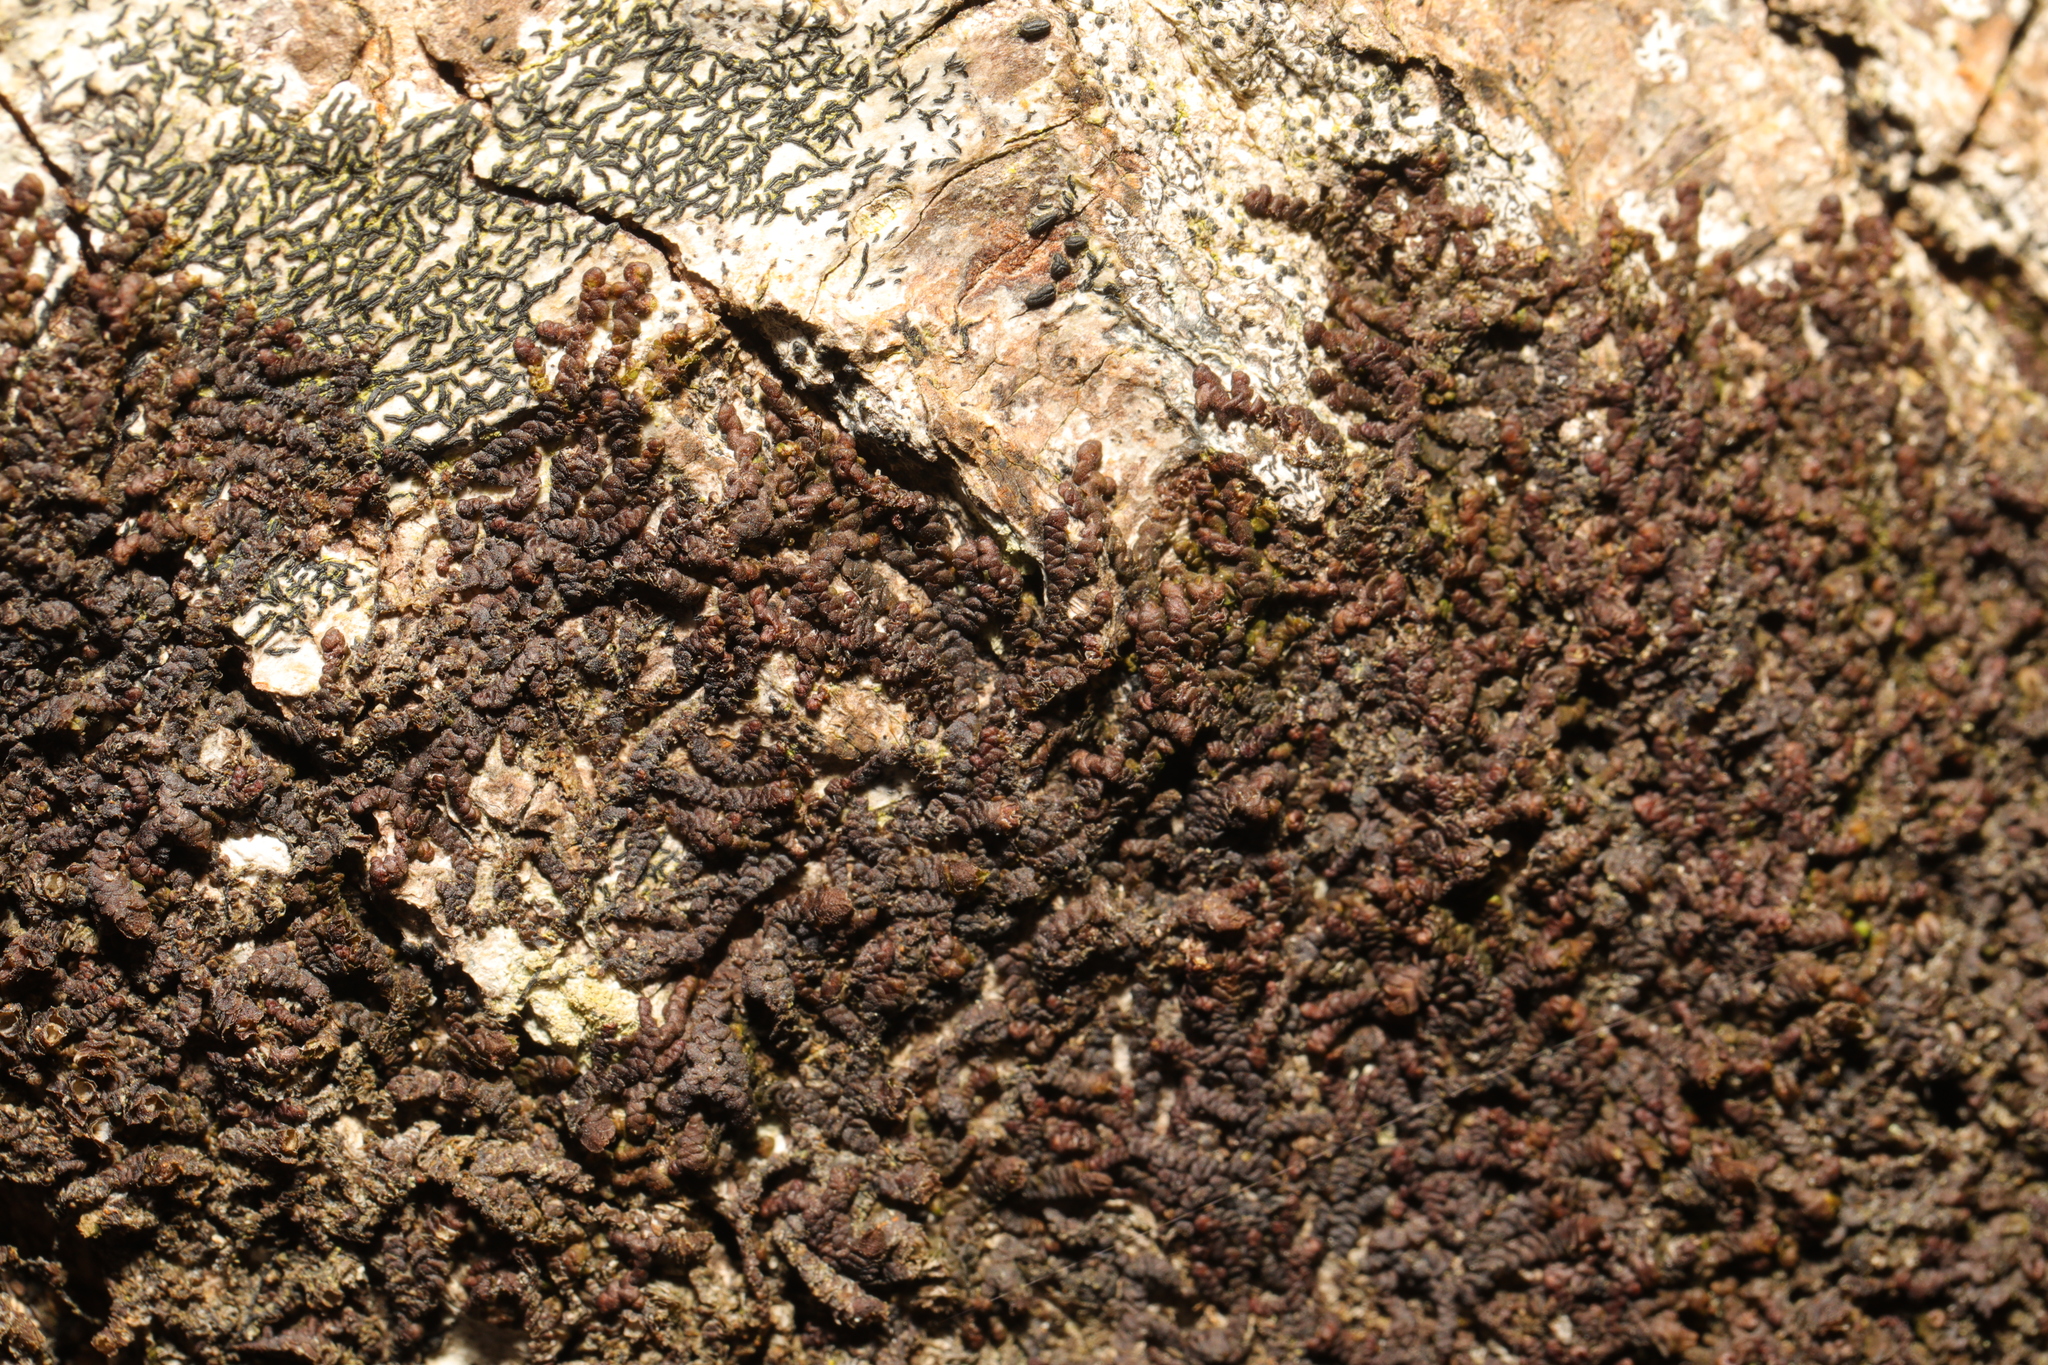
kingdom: Plantae
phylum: Marchantiophyta
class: Jungermanniopsida
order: Porellales
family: Frullaniaceae
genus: Frullania
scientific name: Frullania dilatata
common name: Dilated scalewort
